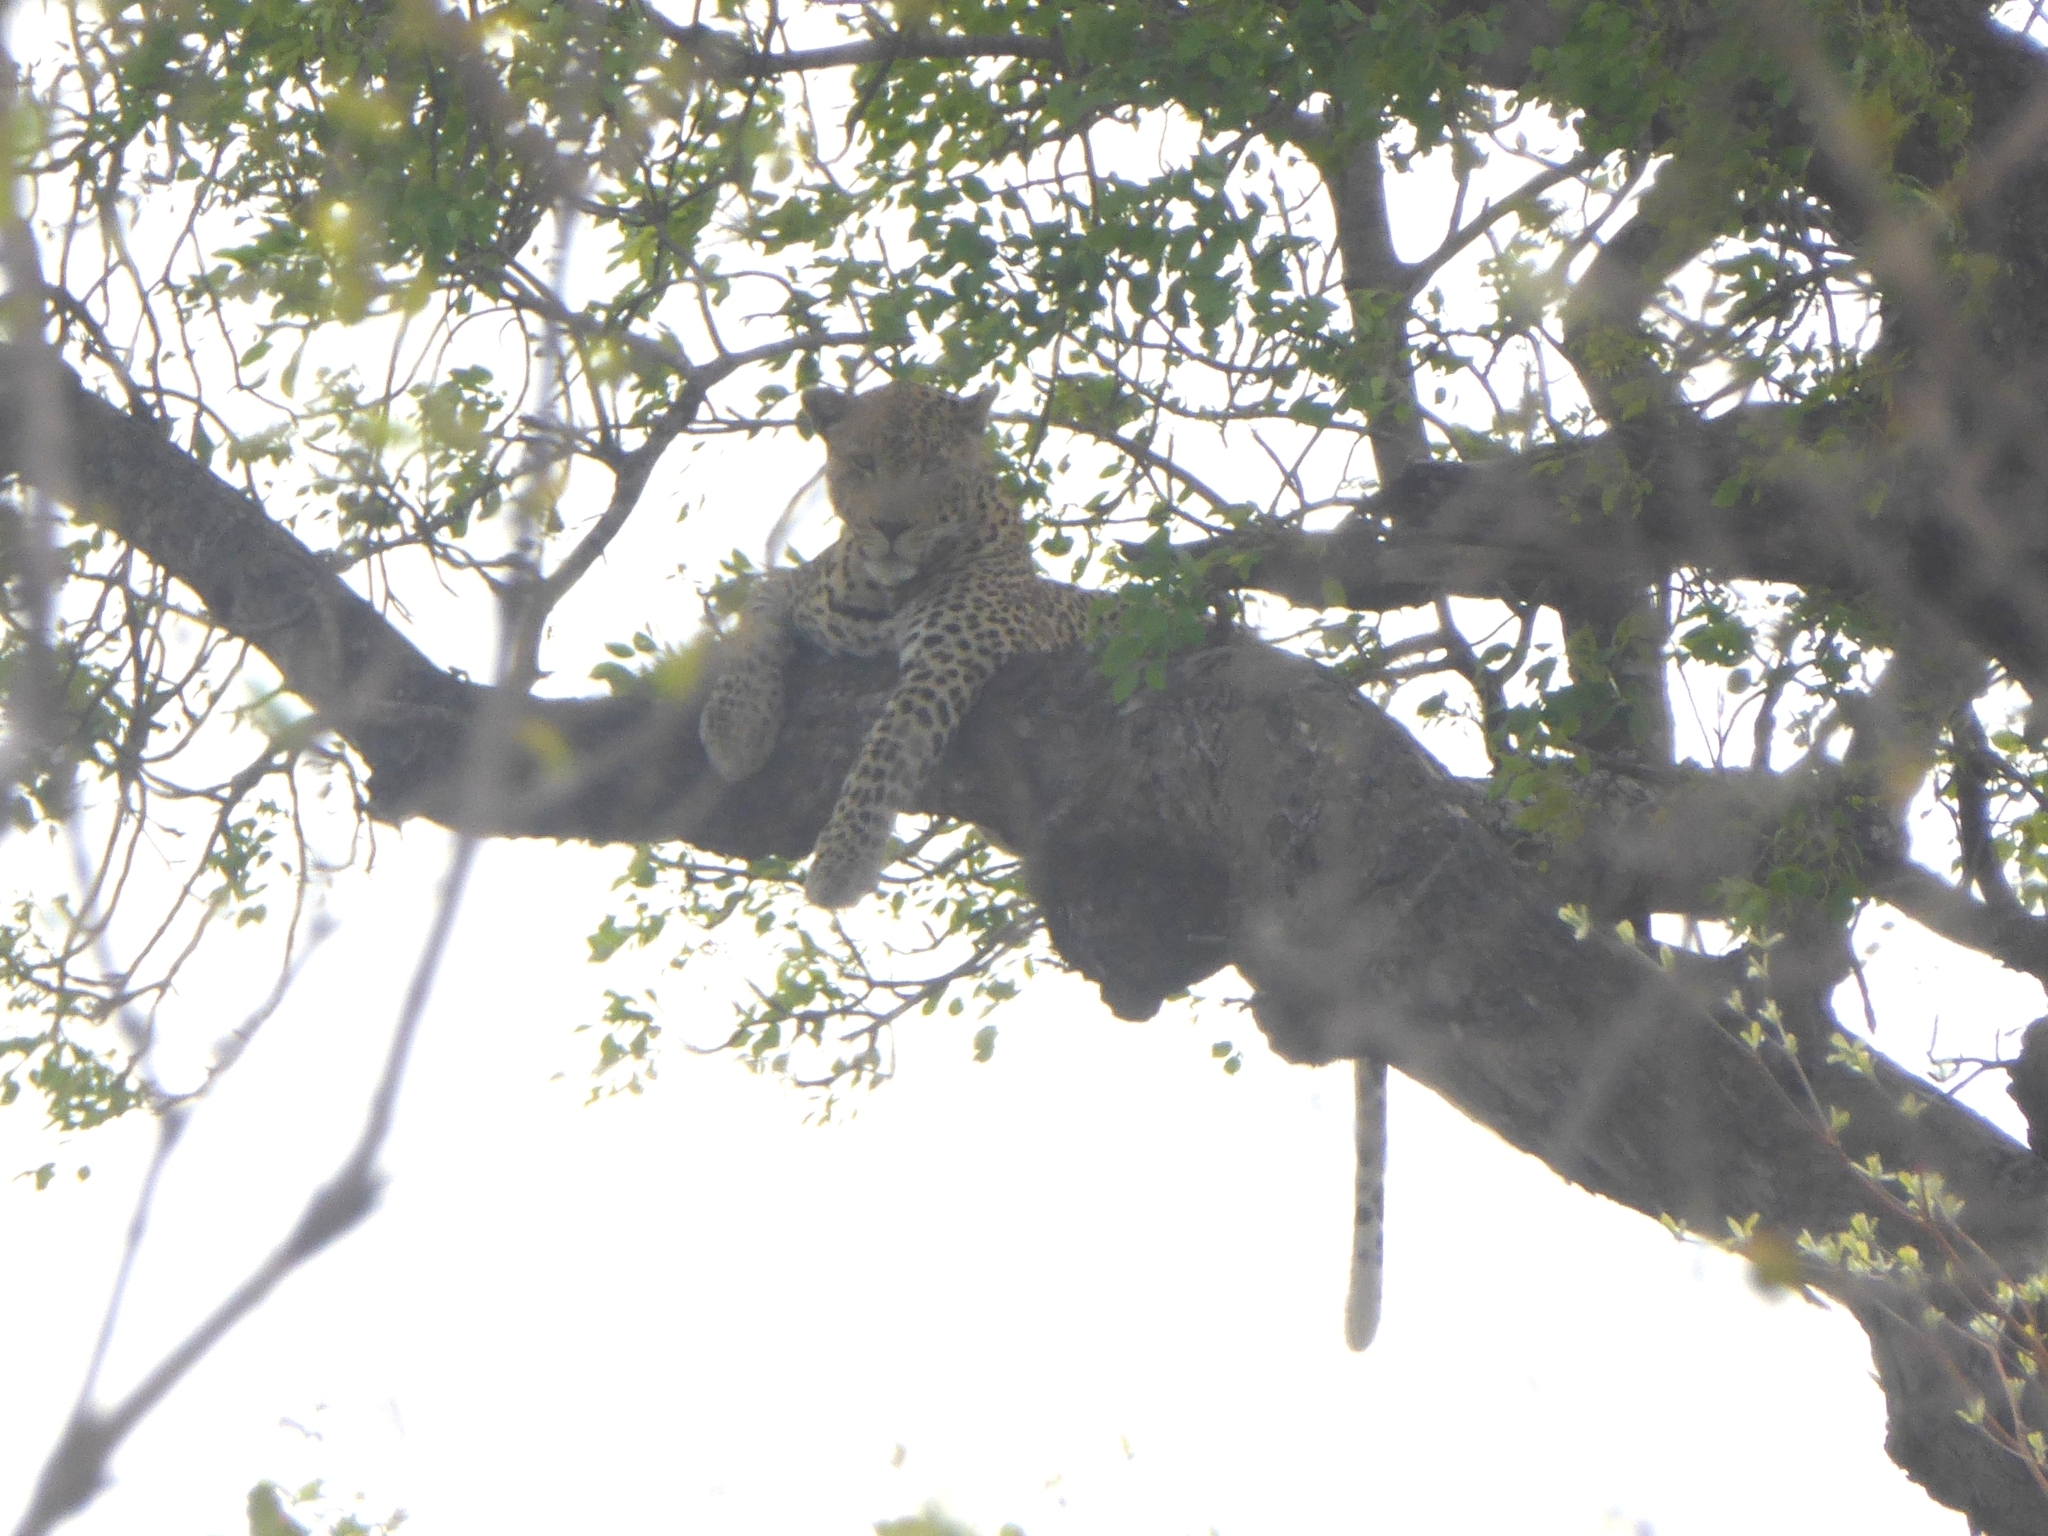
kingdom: Animalia
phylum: Chordata
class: Mammalia
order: Carnivora
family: Felidae
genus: Panthera
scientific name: Panthera pardus
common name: Leopard
